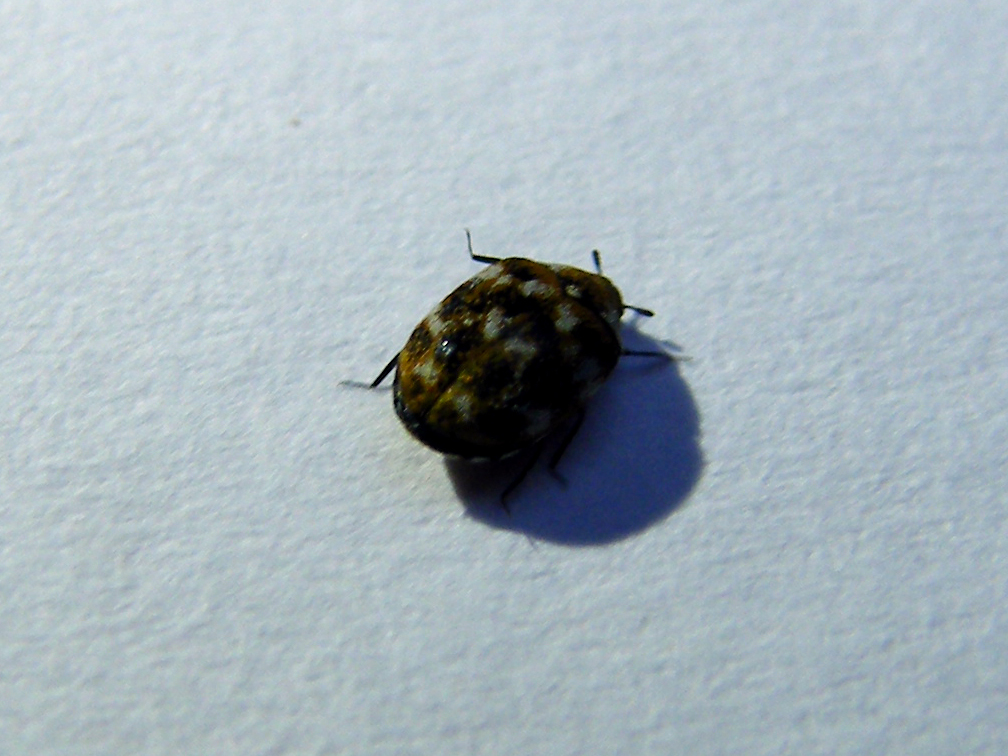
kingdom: Animalia
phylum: Arthropoda
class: Insecta
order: Coleoptera
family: Dermestidae
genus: Anthrenus
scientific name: Anthrenus verbasci
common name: Varied carpet beetle
